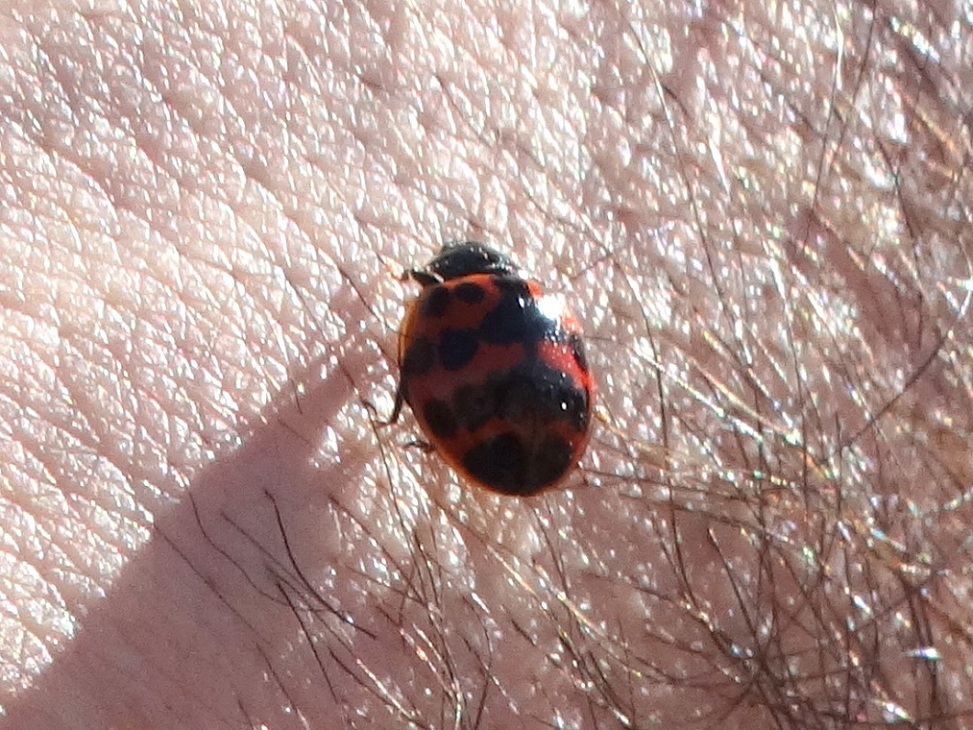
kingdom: Animalia
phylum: Arthropoda
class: Insecta
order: Coleoptera
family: Coccinellidae
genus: Harmonia
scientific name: Harmonia axyridis
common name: Harlequin ladybird
